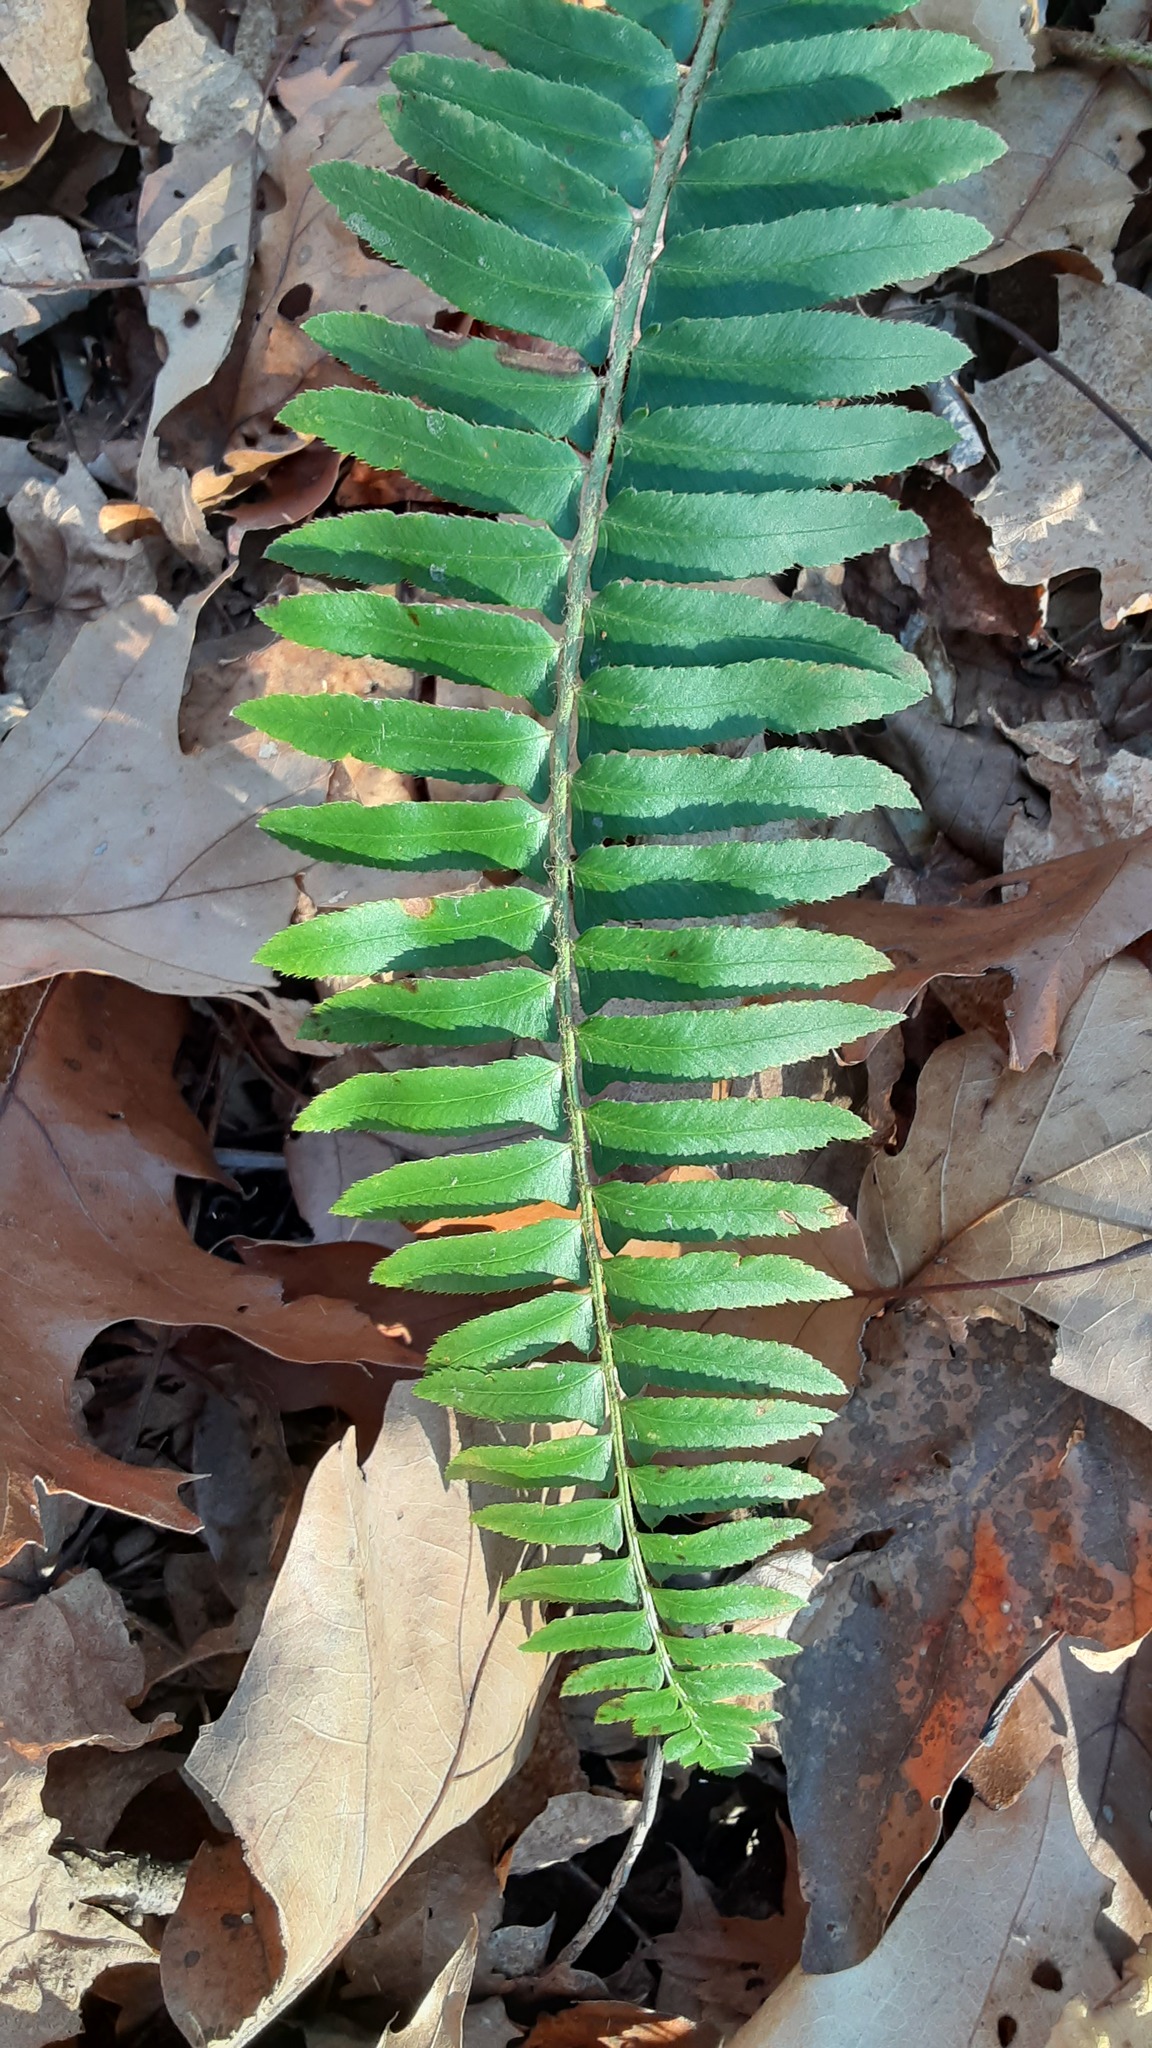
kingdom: Plantae
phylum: Tracheophyta
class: Polypodiopsida
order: Polypodiales
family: Dryopteridaceae
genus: Polystichum
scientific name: Polystichum acrostichoides
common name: Christmas fern
